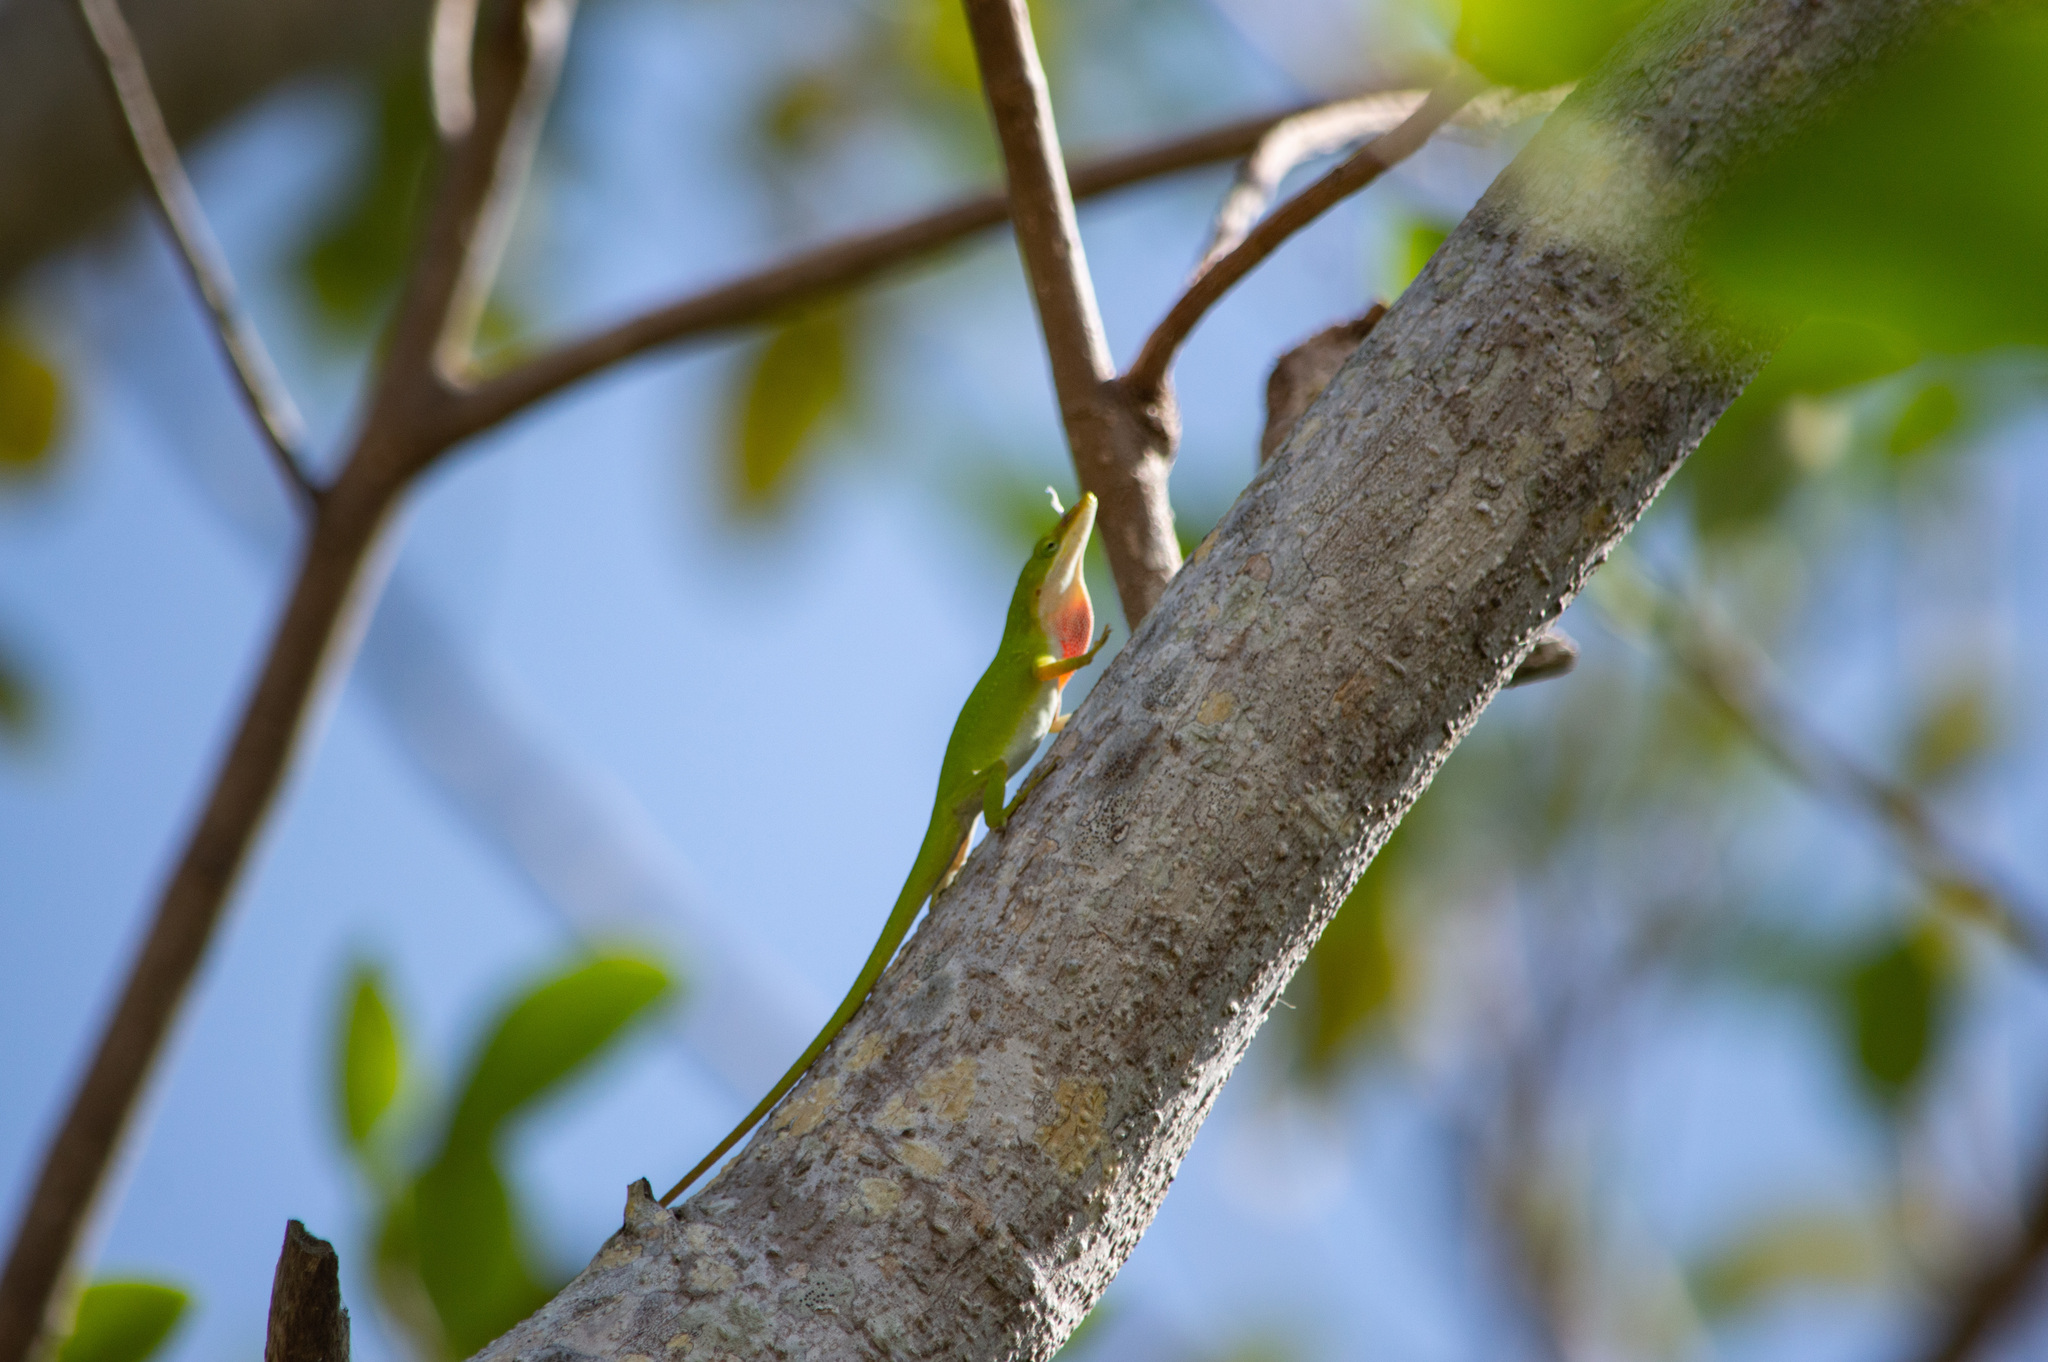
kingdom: Animalia
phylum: Chordata
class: Squamata
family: Dactyloidae
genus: Anolis
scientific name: Anolis carolinensis
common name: Green anole
